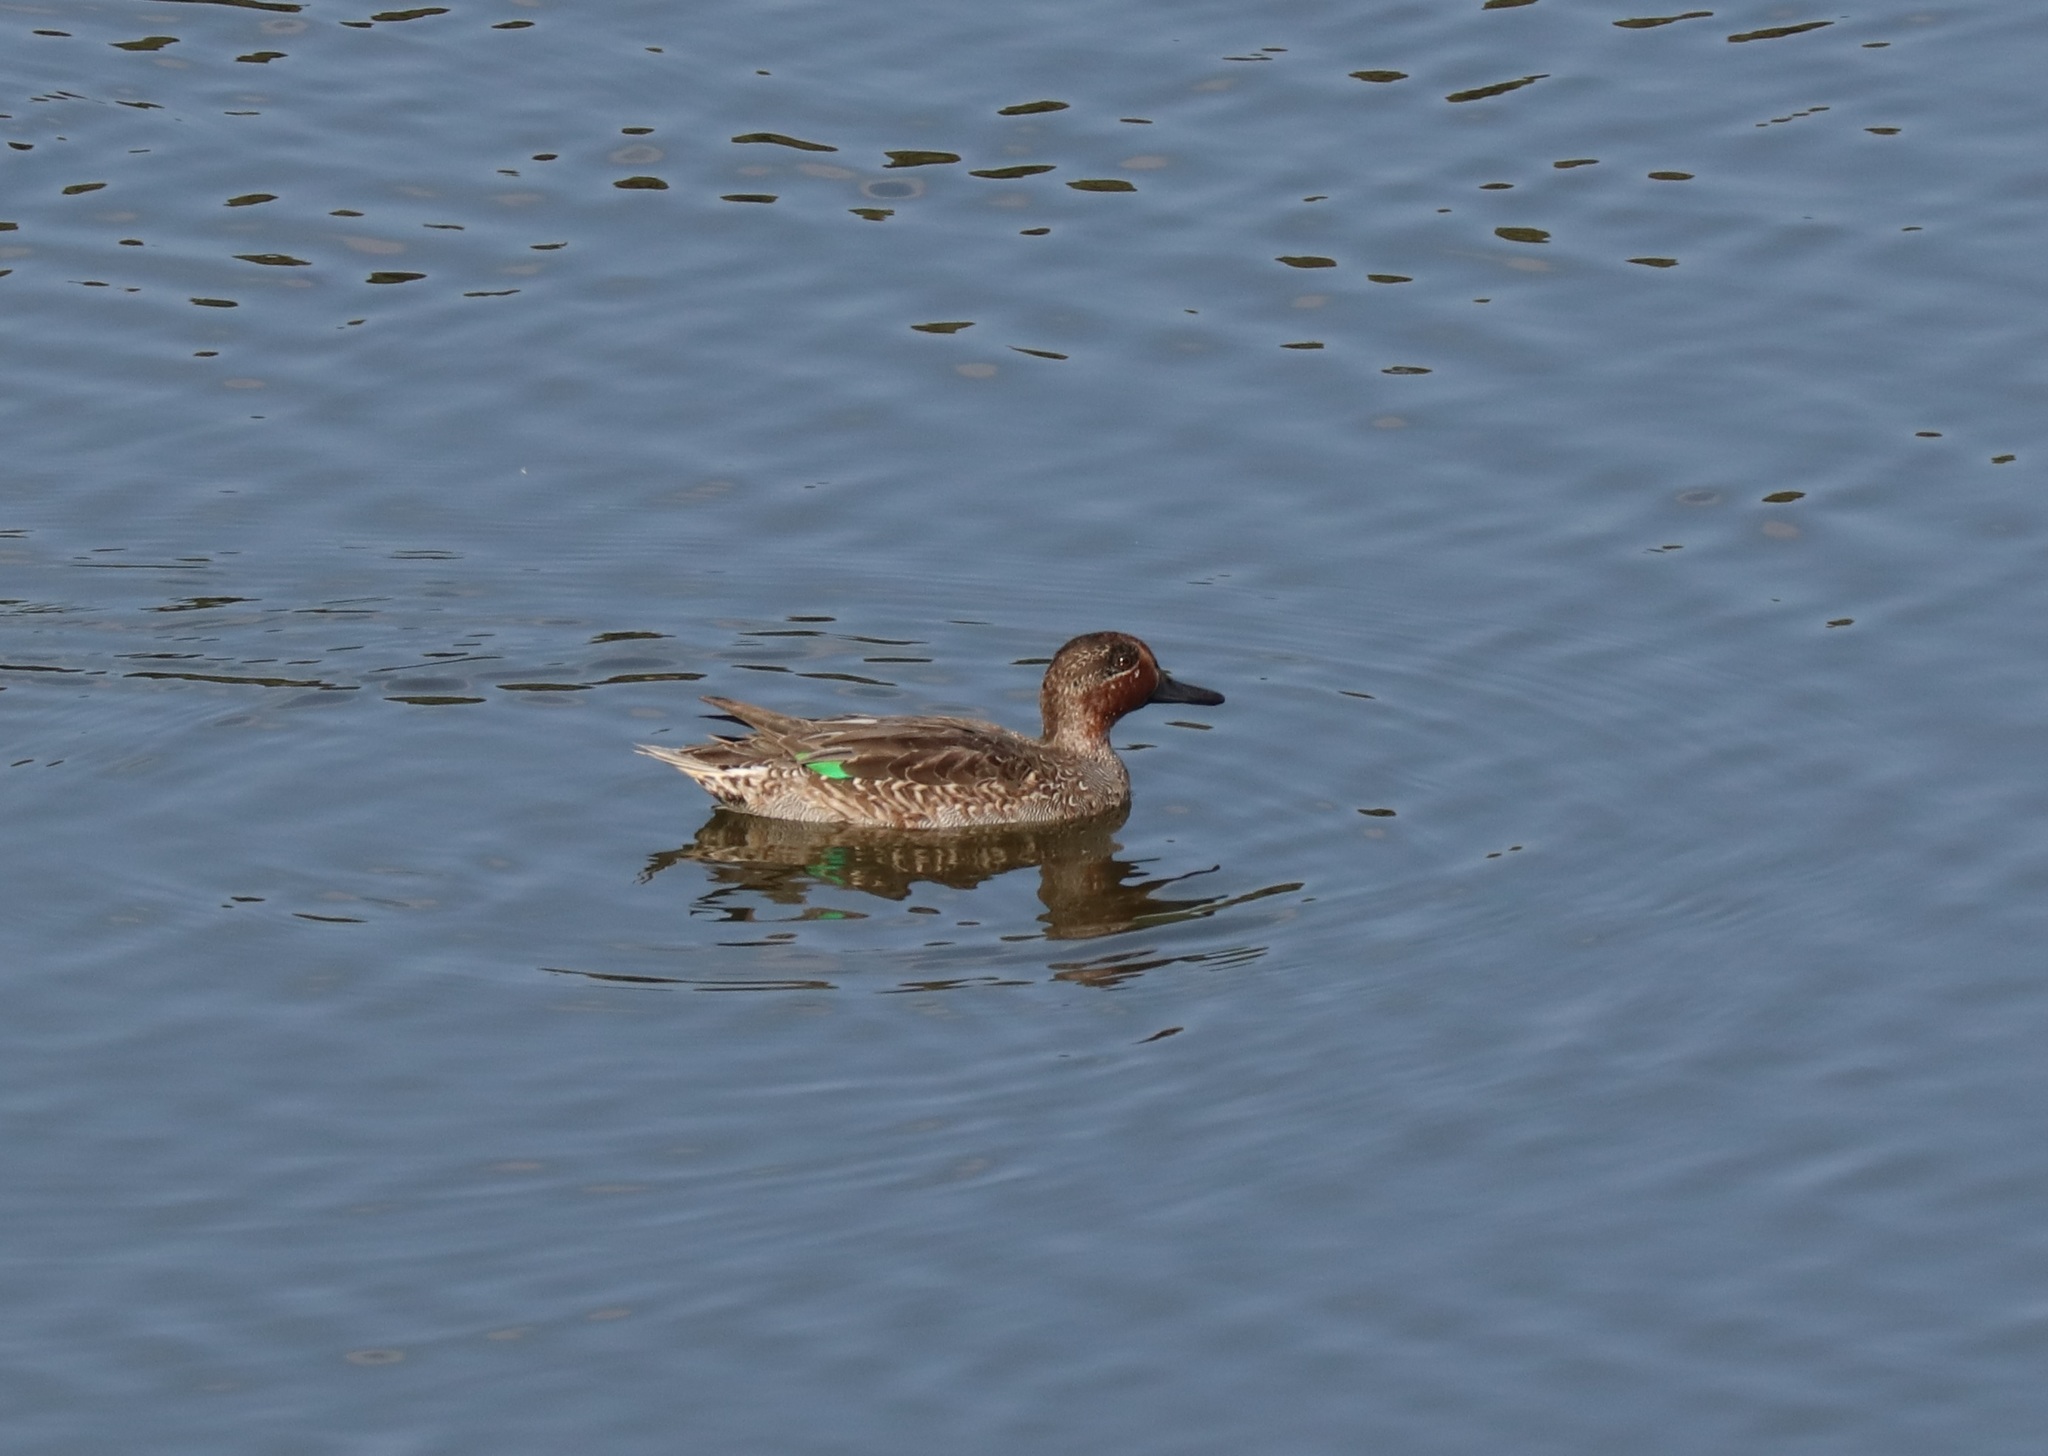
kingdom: Animalia
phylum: Chordata
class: Aves
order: Anseriformes
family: Anatidae
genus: Anas
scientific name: Anas crecca
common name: Eurasian teal
